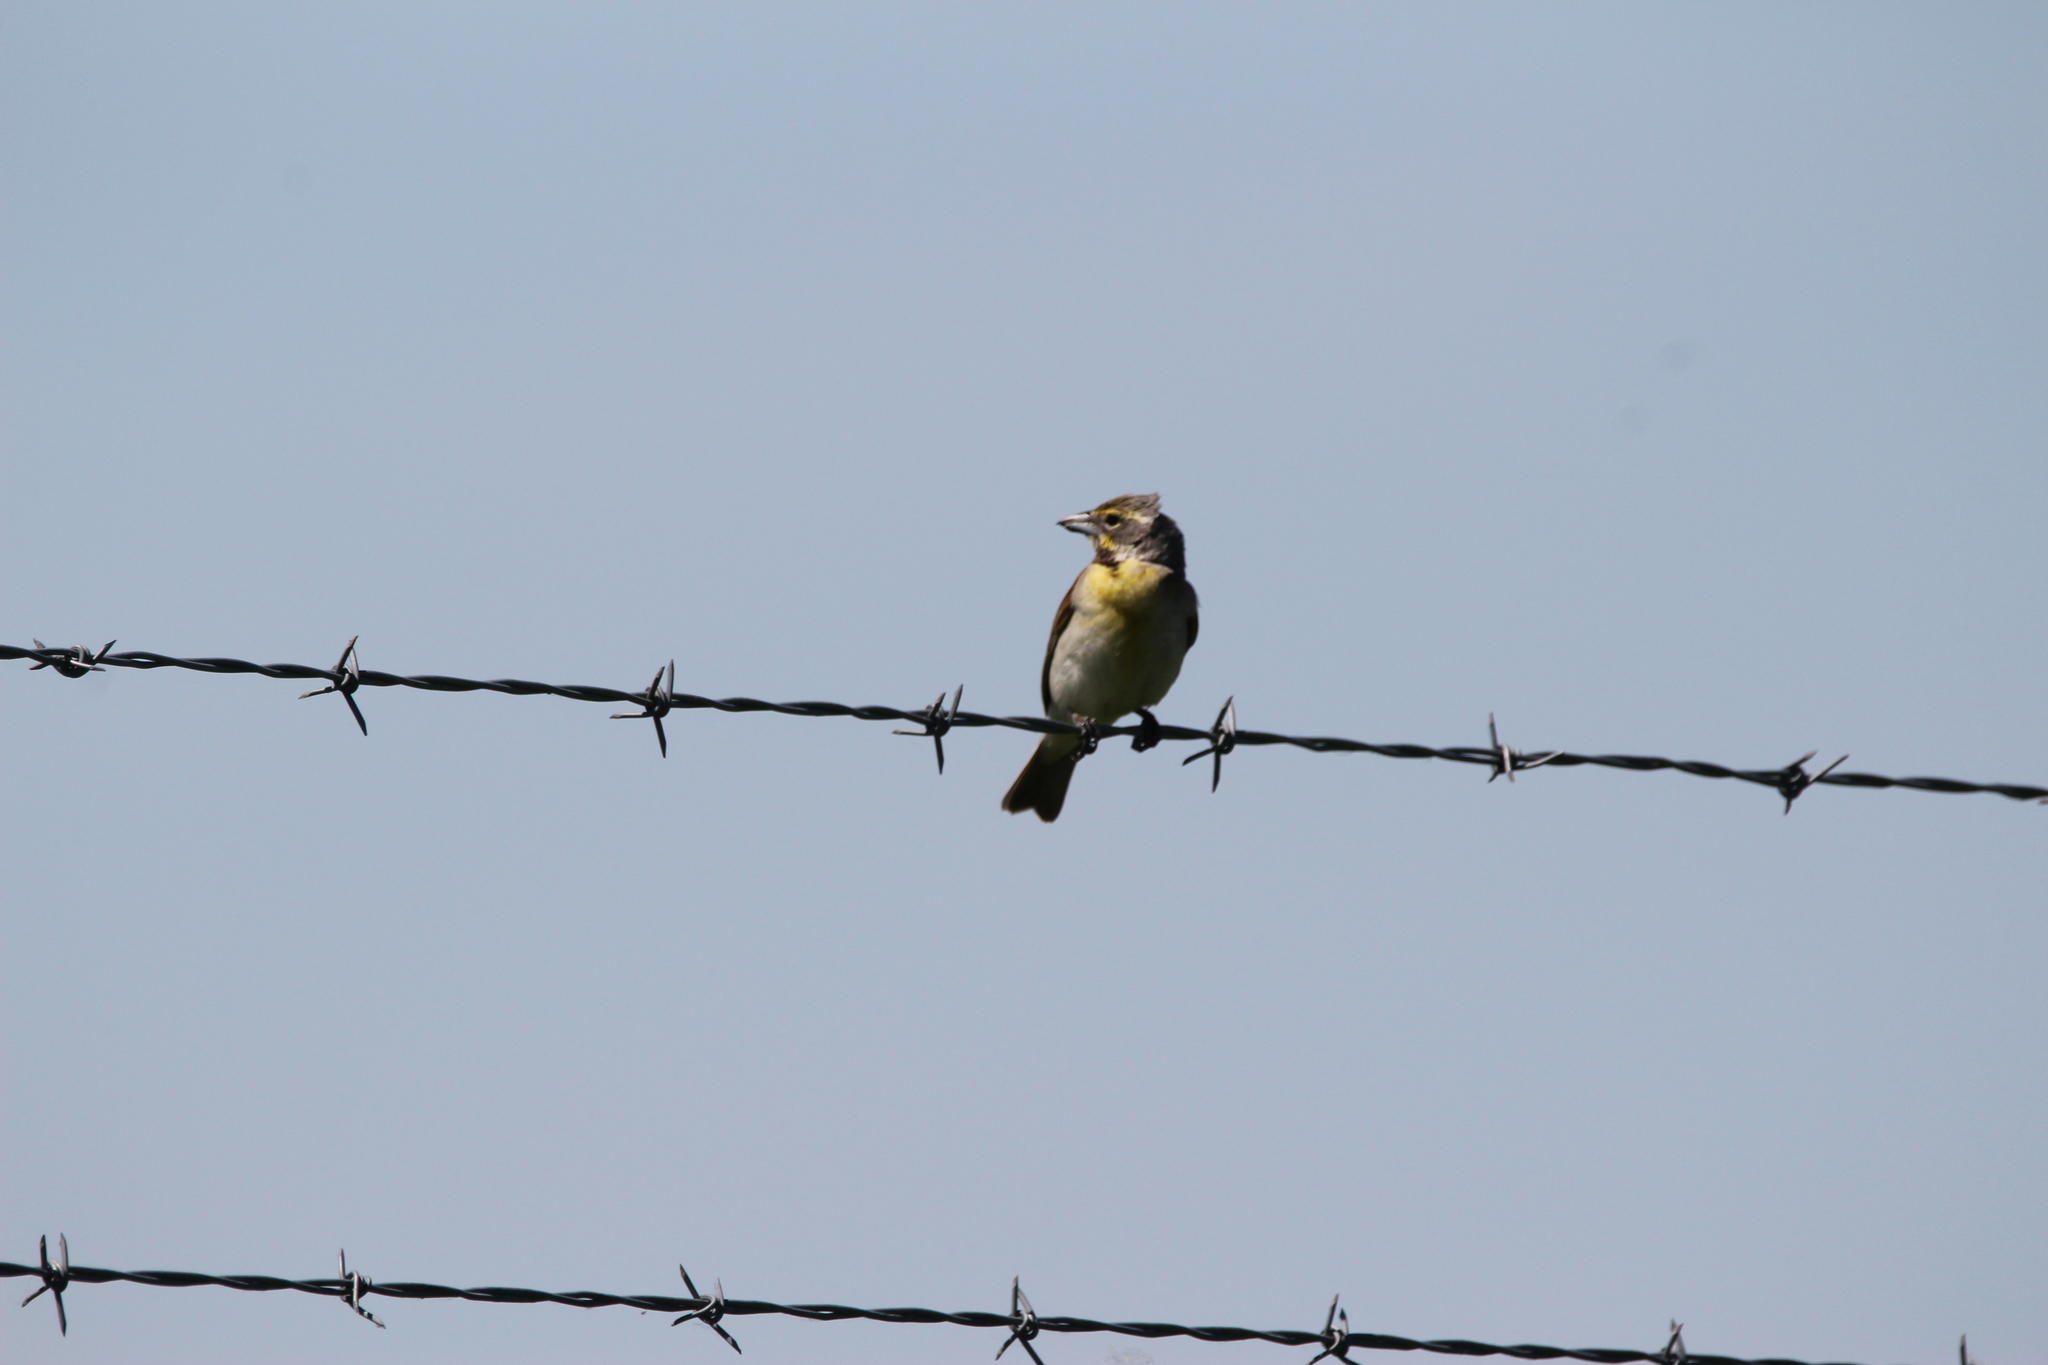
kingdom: Animalia
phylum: Chordata
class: Aves
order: Passeriformes
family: Cardinalidae
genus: Spiza
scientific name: Spiza americana
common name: Dickcissel
